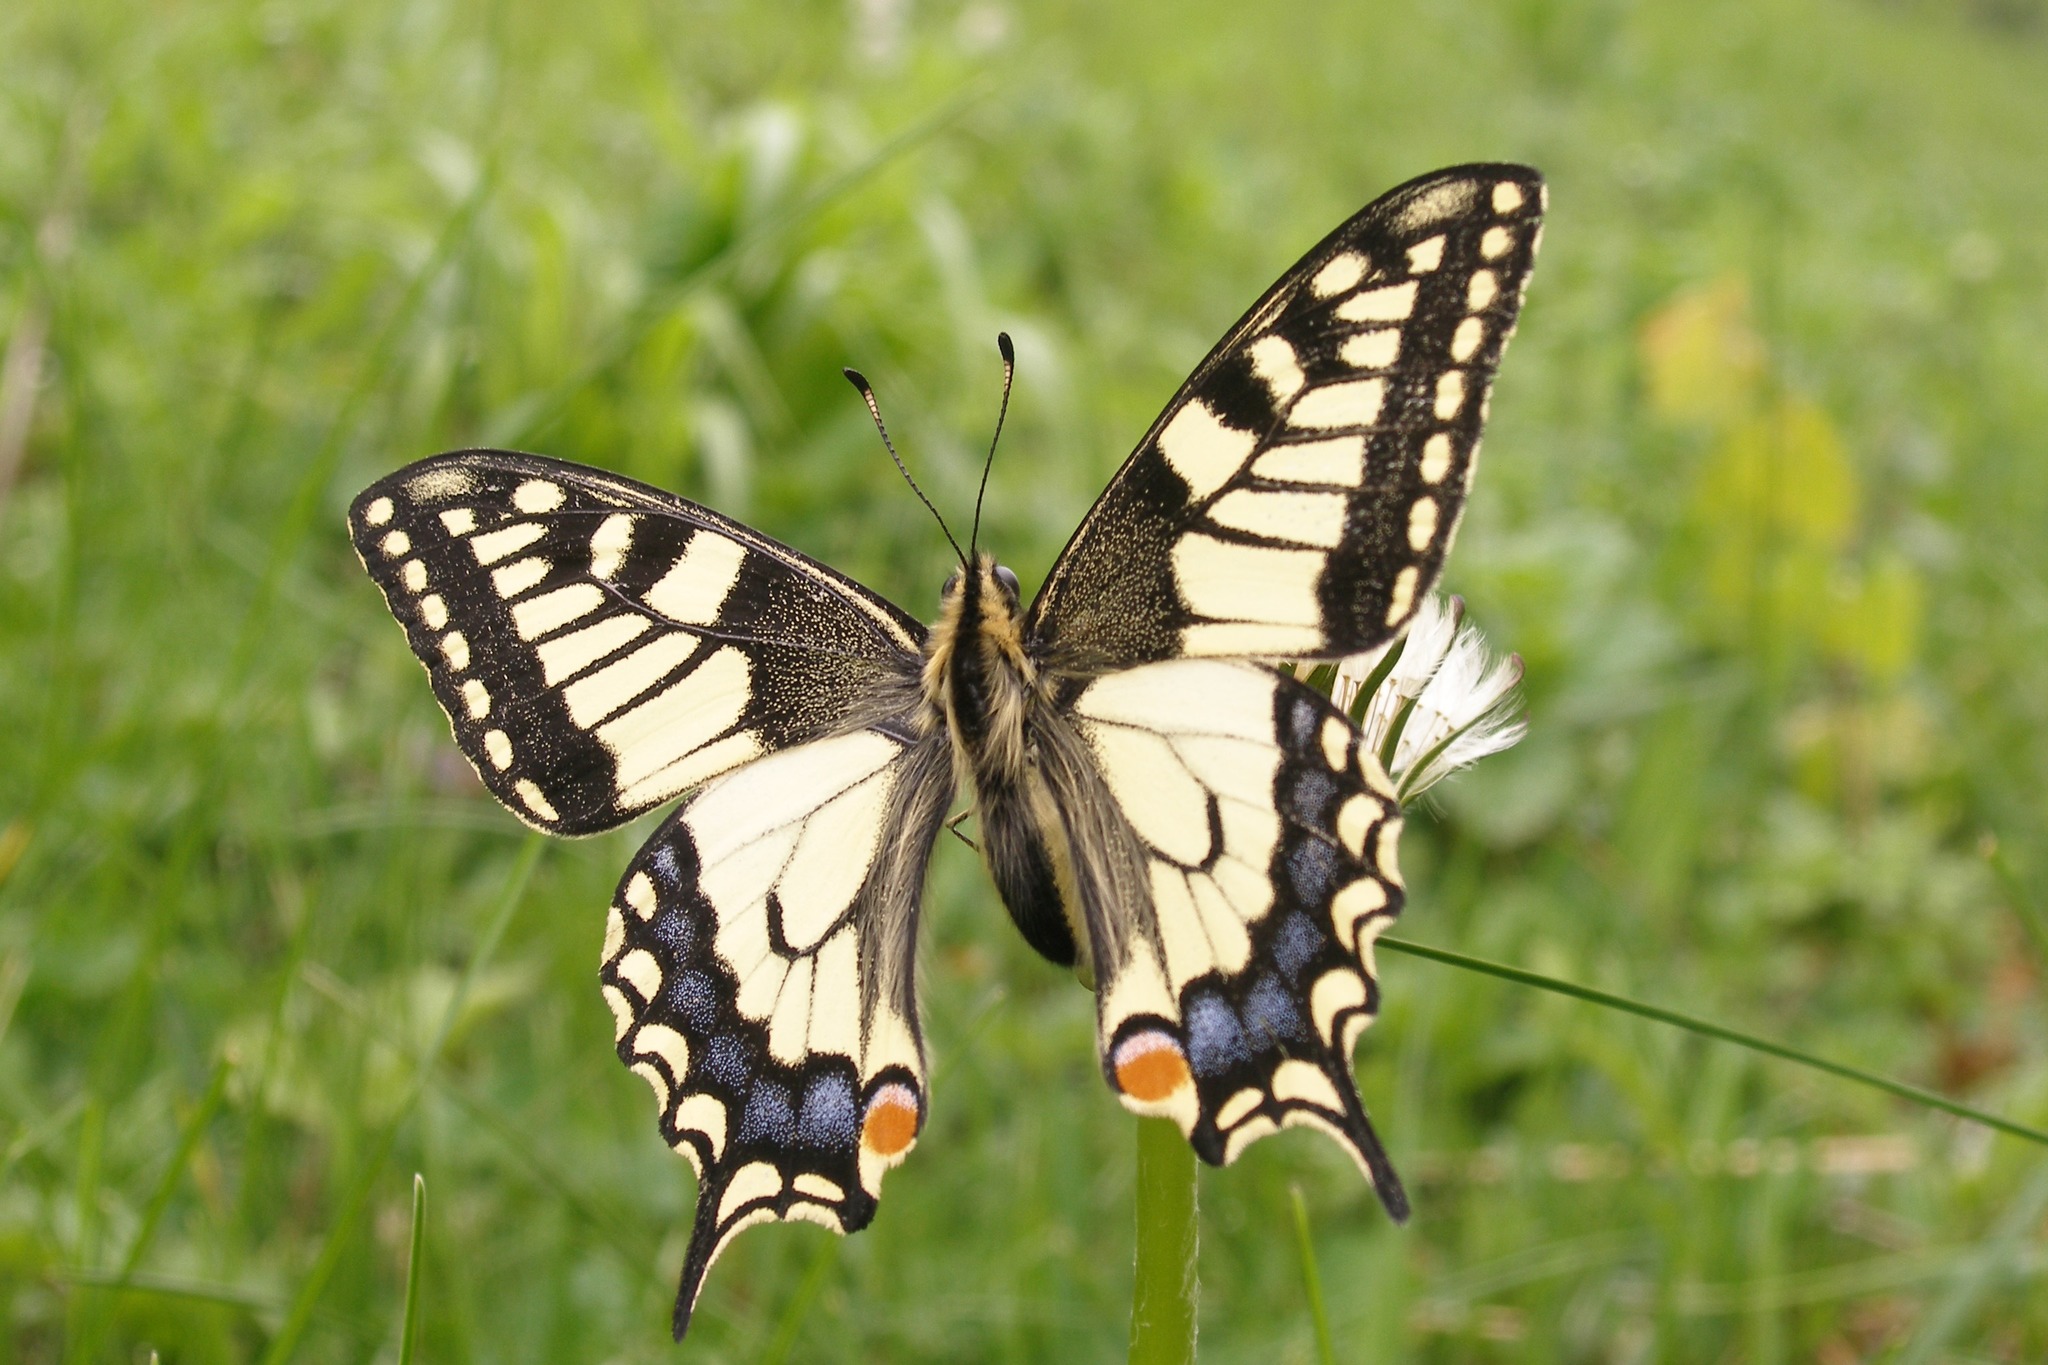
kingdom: Animalia
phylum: Arthropoda
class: Insecta
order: Lepidoptera
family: Papilionidae
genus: Papilio
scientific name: Papilio machaon
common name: Swallowtail
